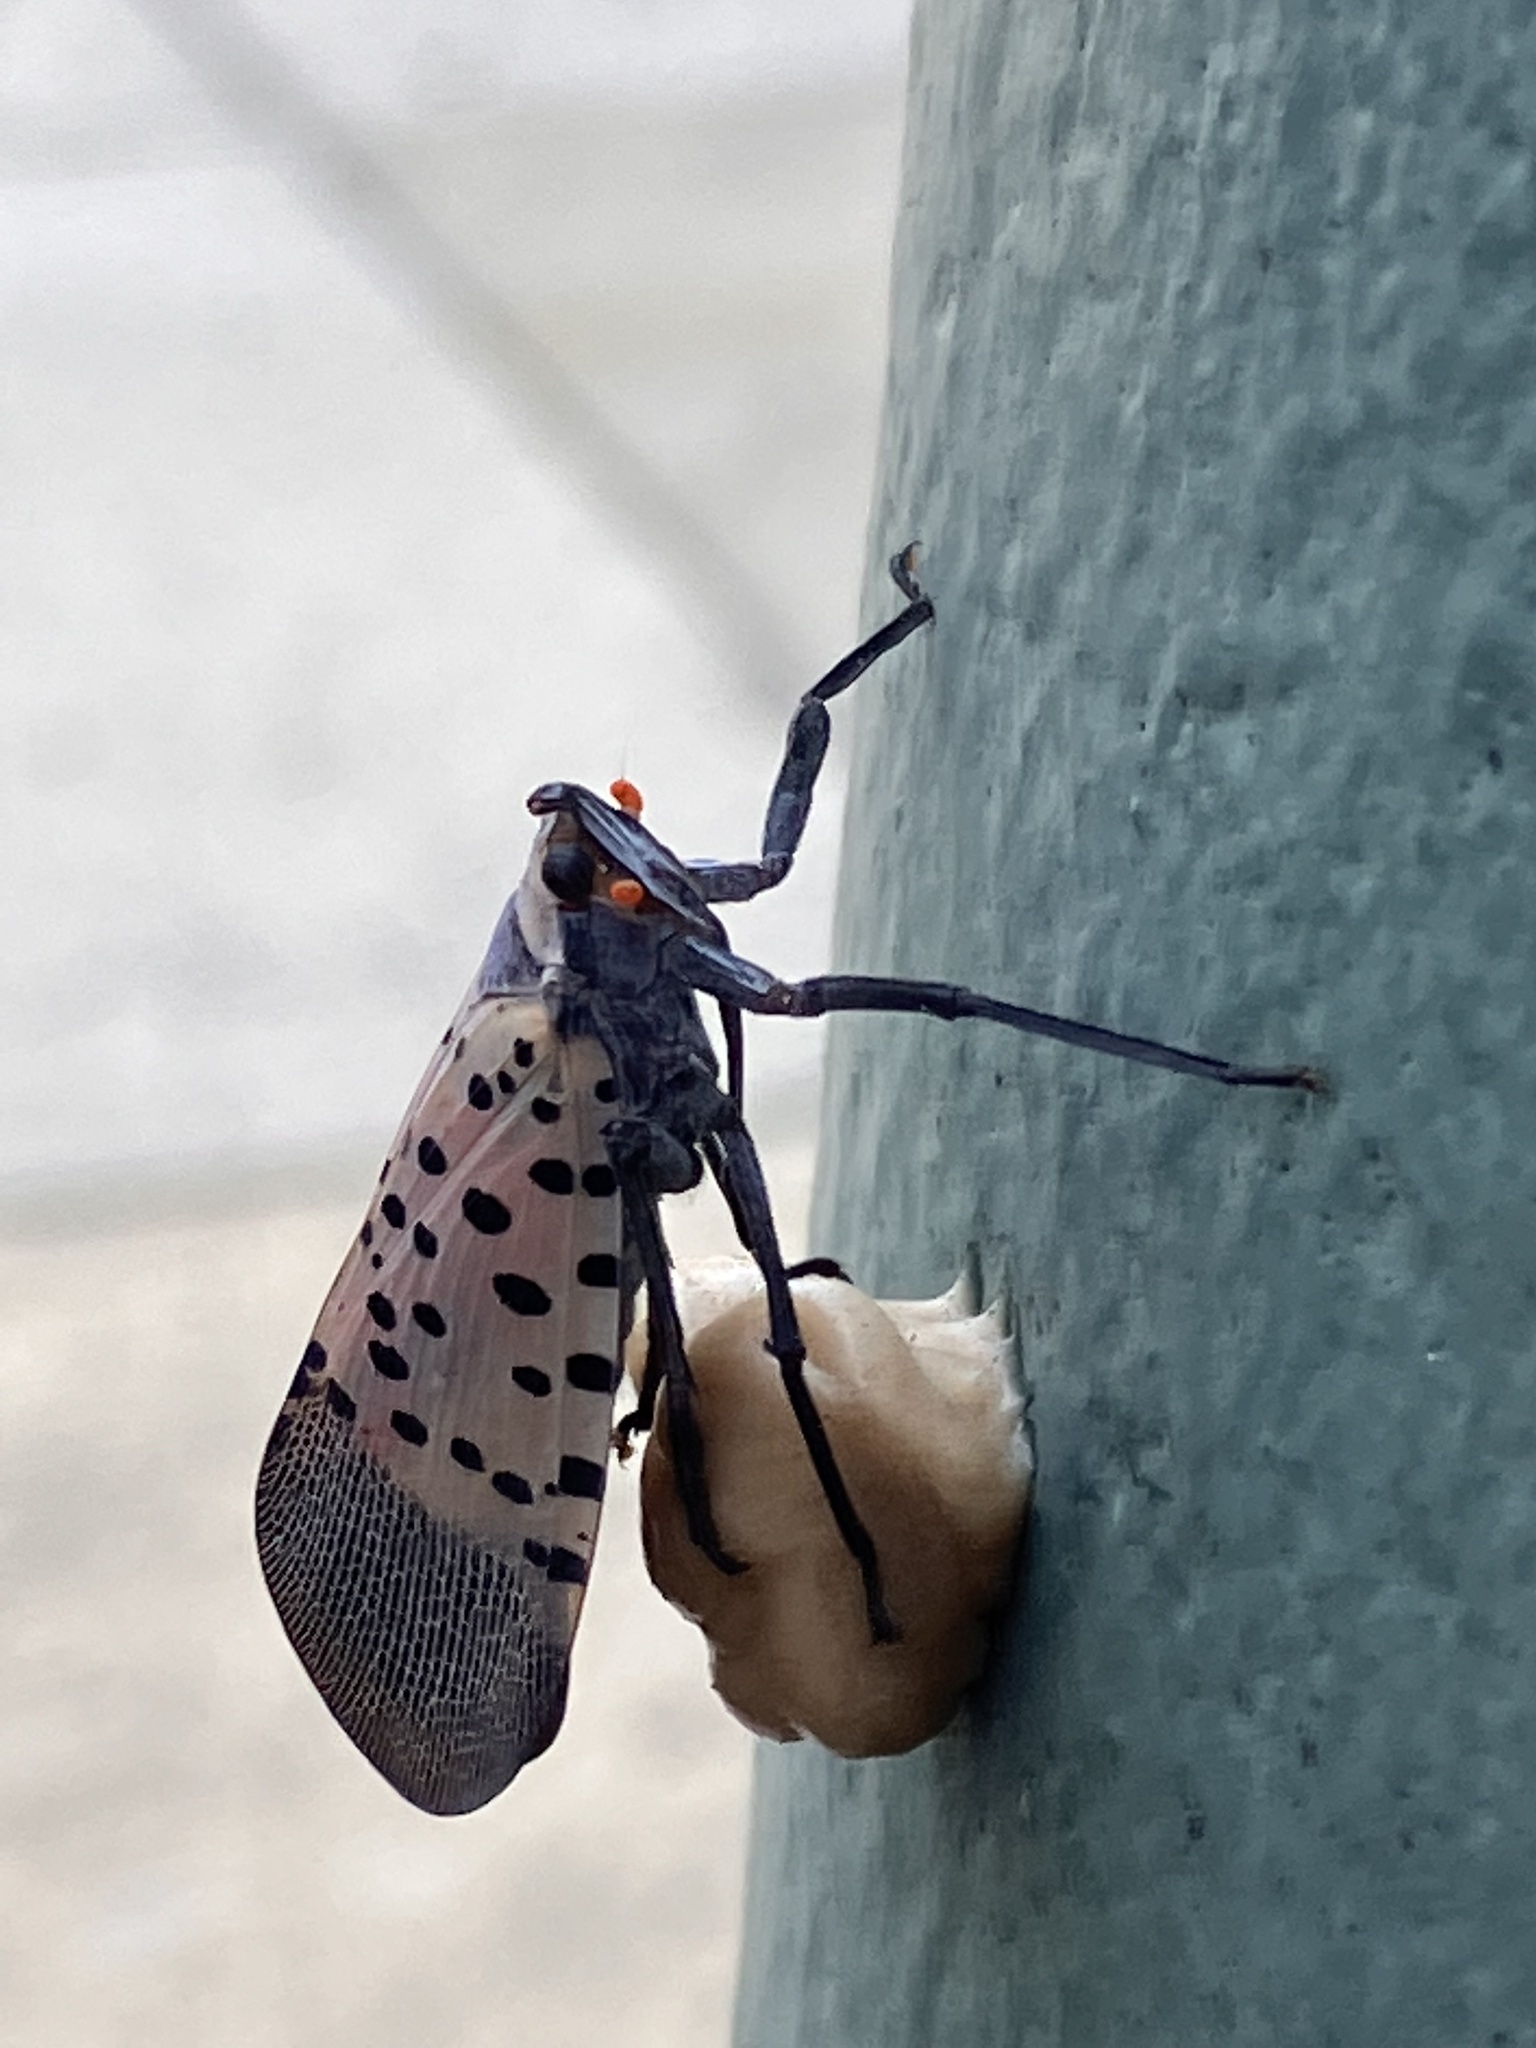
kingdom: Animalia
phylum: Arthropoda
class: Insecta
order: Hemiptera
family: Fulgoridae
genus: Lycorma
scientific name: Lycorma delicatula
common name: Spotted lanternfly
